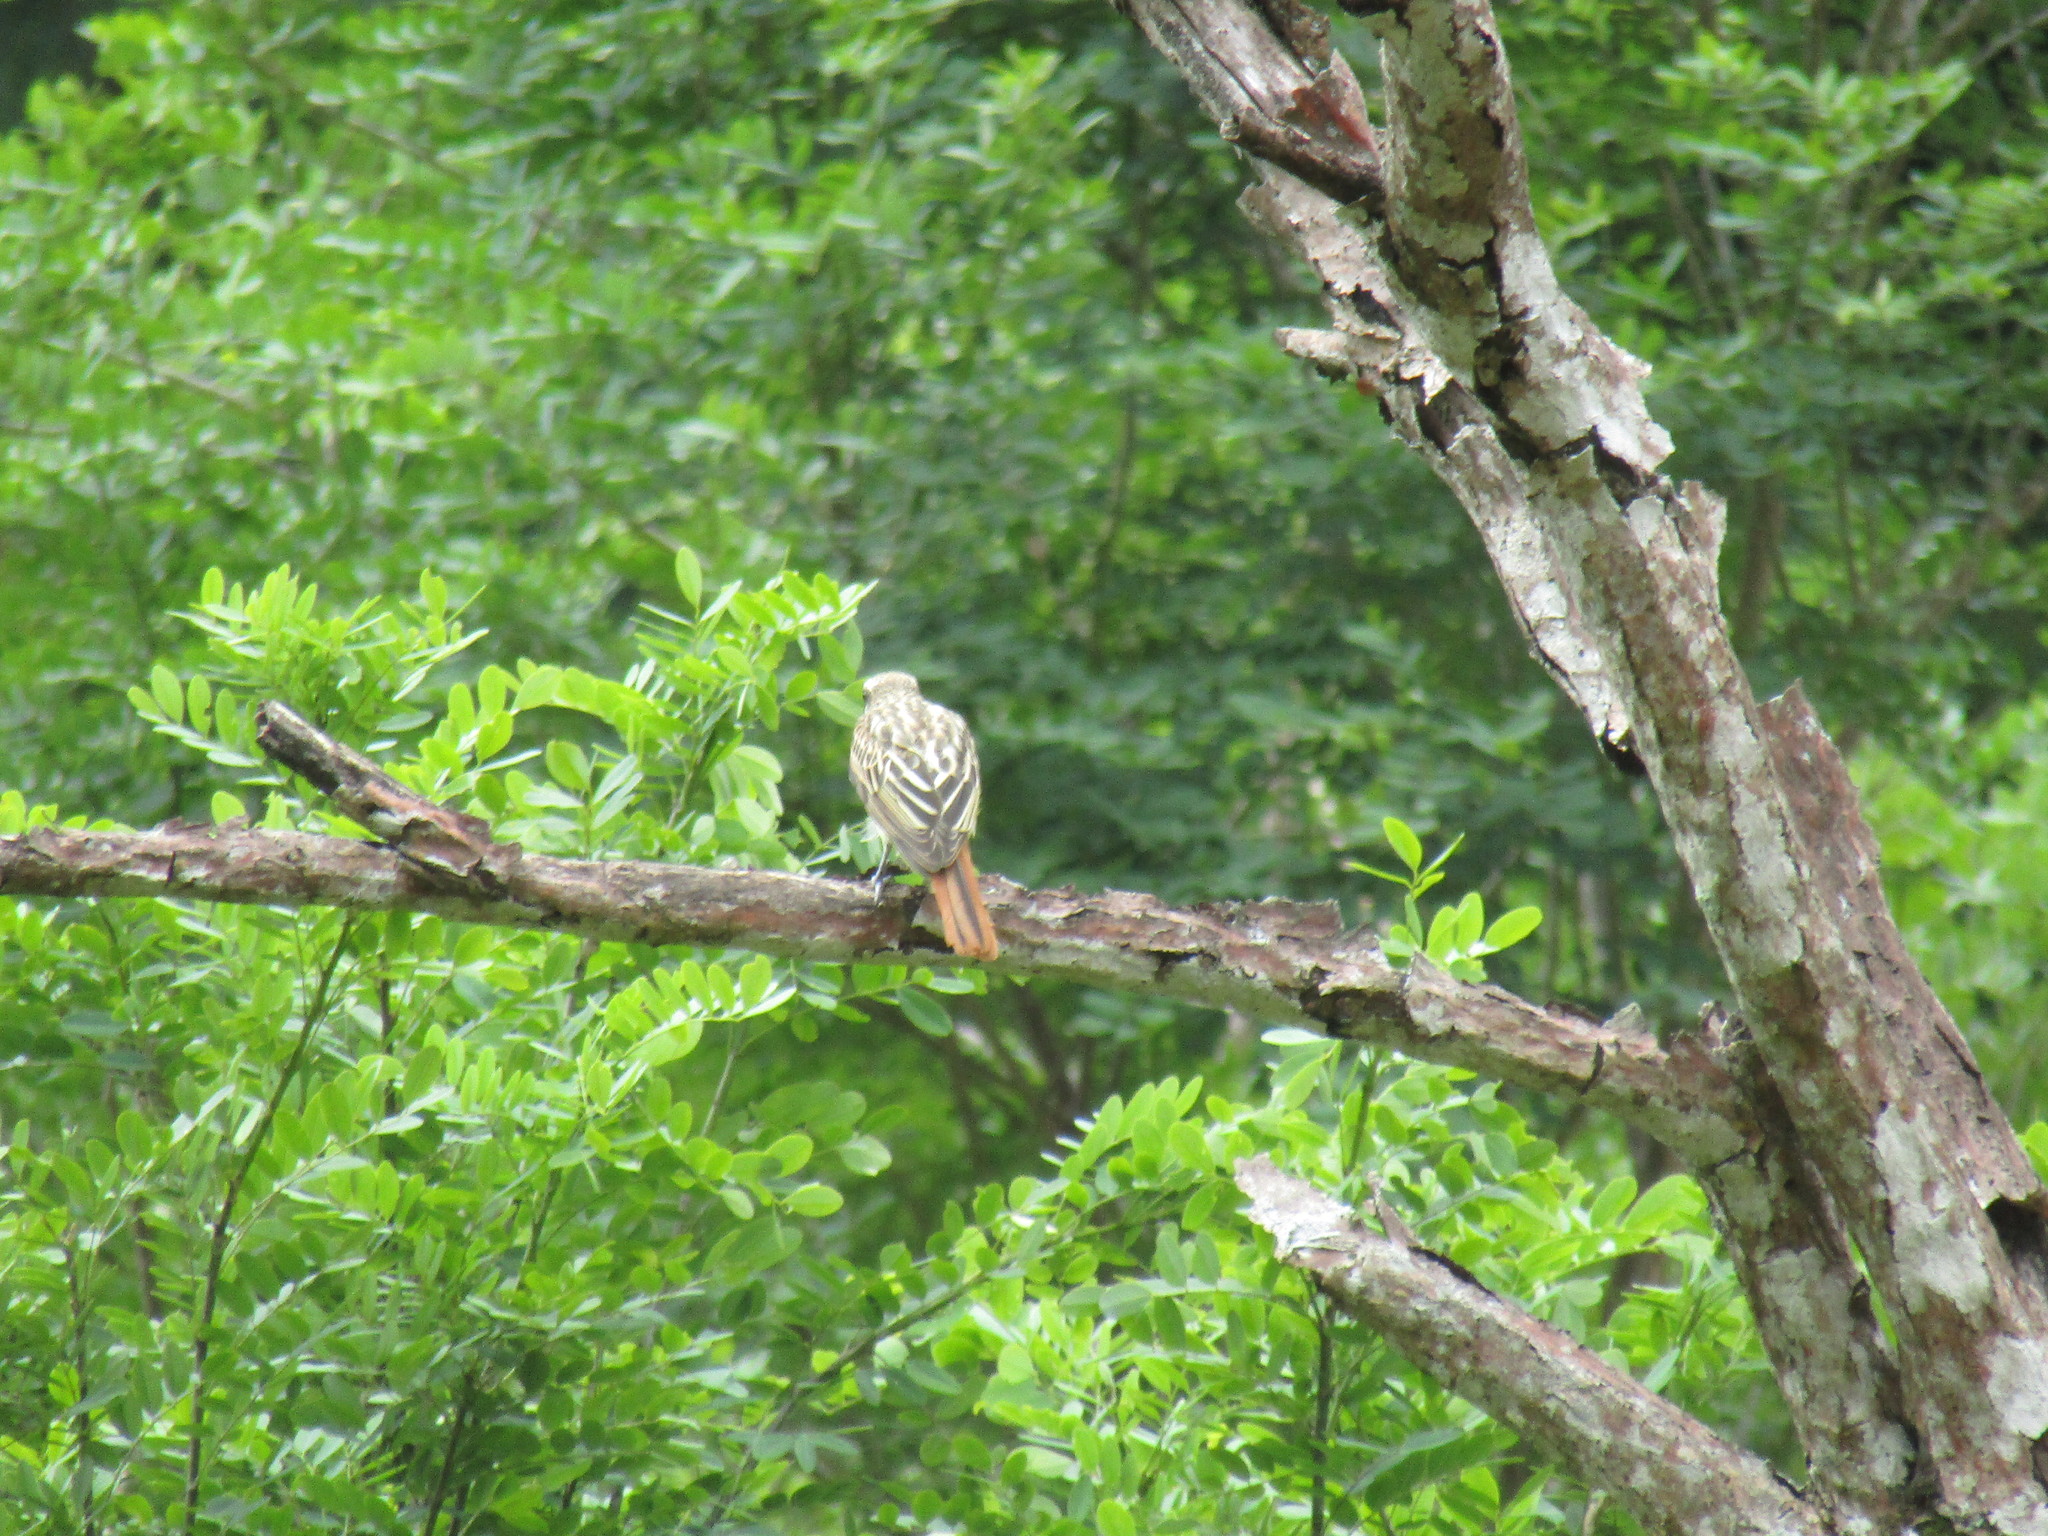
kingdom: Animalia
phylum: Chordata
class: Aves
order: Passeriformes
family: Tyrannidae
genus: Myiodynastes
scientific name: Myiodynastes luteiventris
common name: Sulphur-bellied flycatcher
